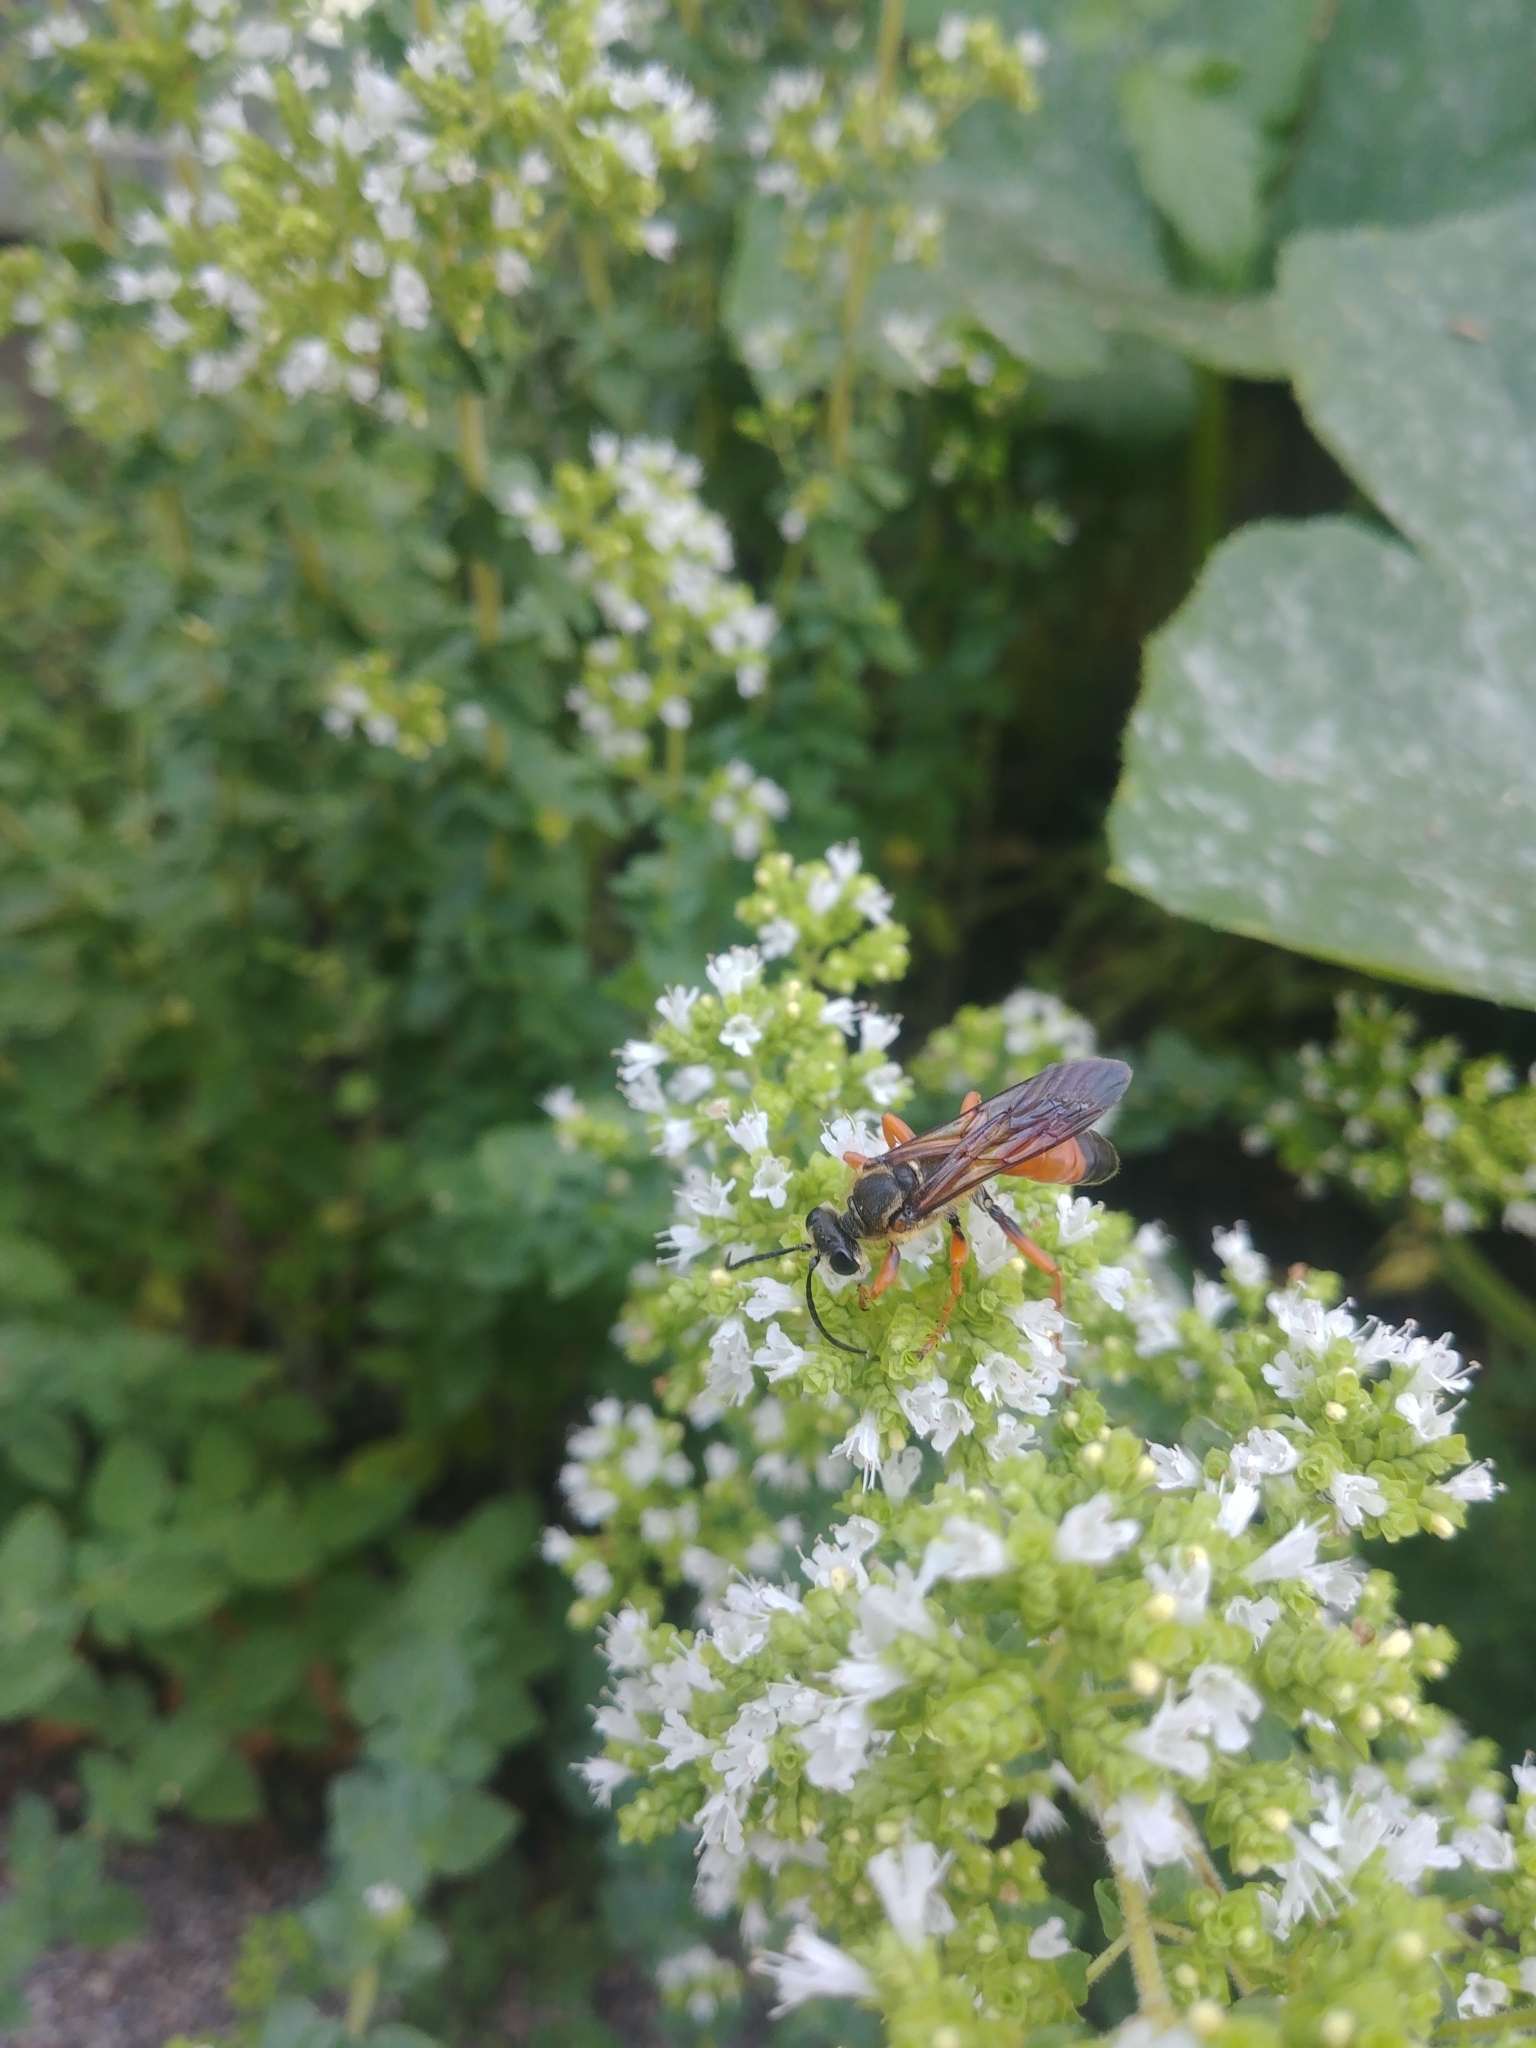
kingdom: Animalia
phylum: Arthropoda
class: Insecta
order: Hymenoptera
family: Sphecidae
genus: Sphex
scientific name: Sphex ichneumoneus
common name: Great golden digger wasp
